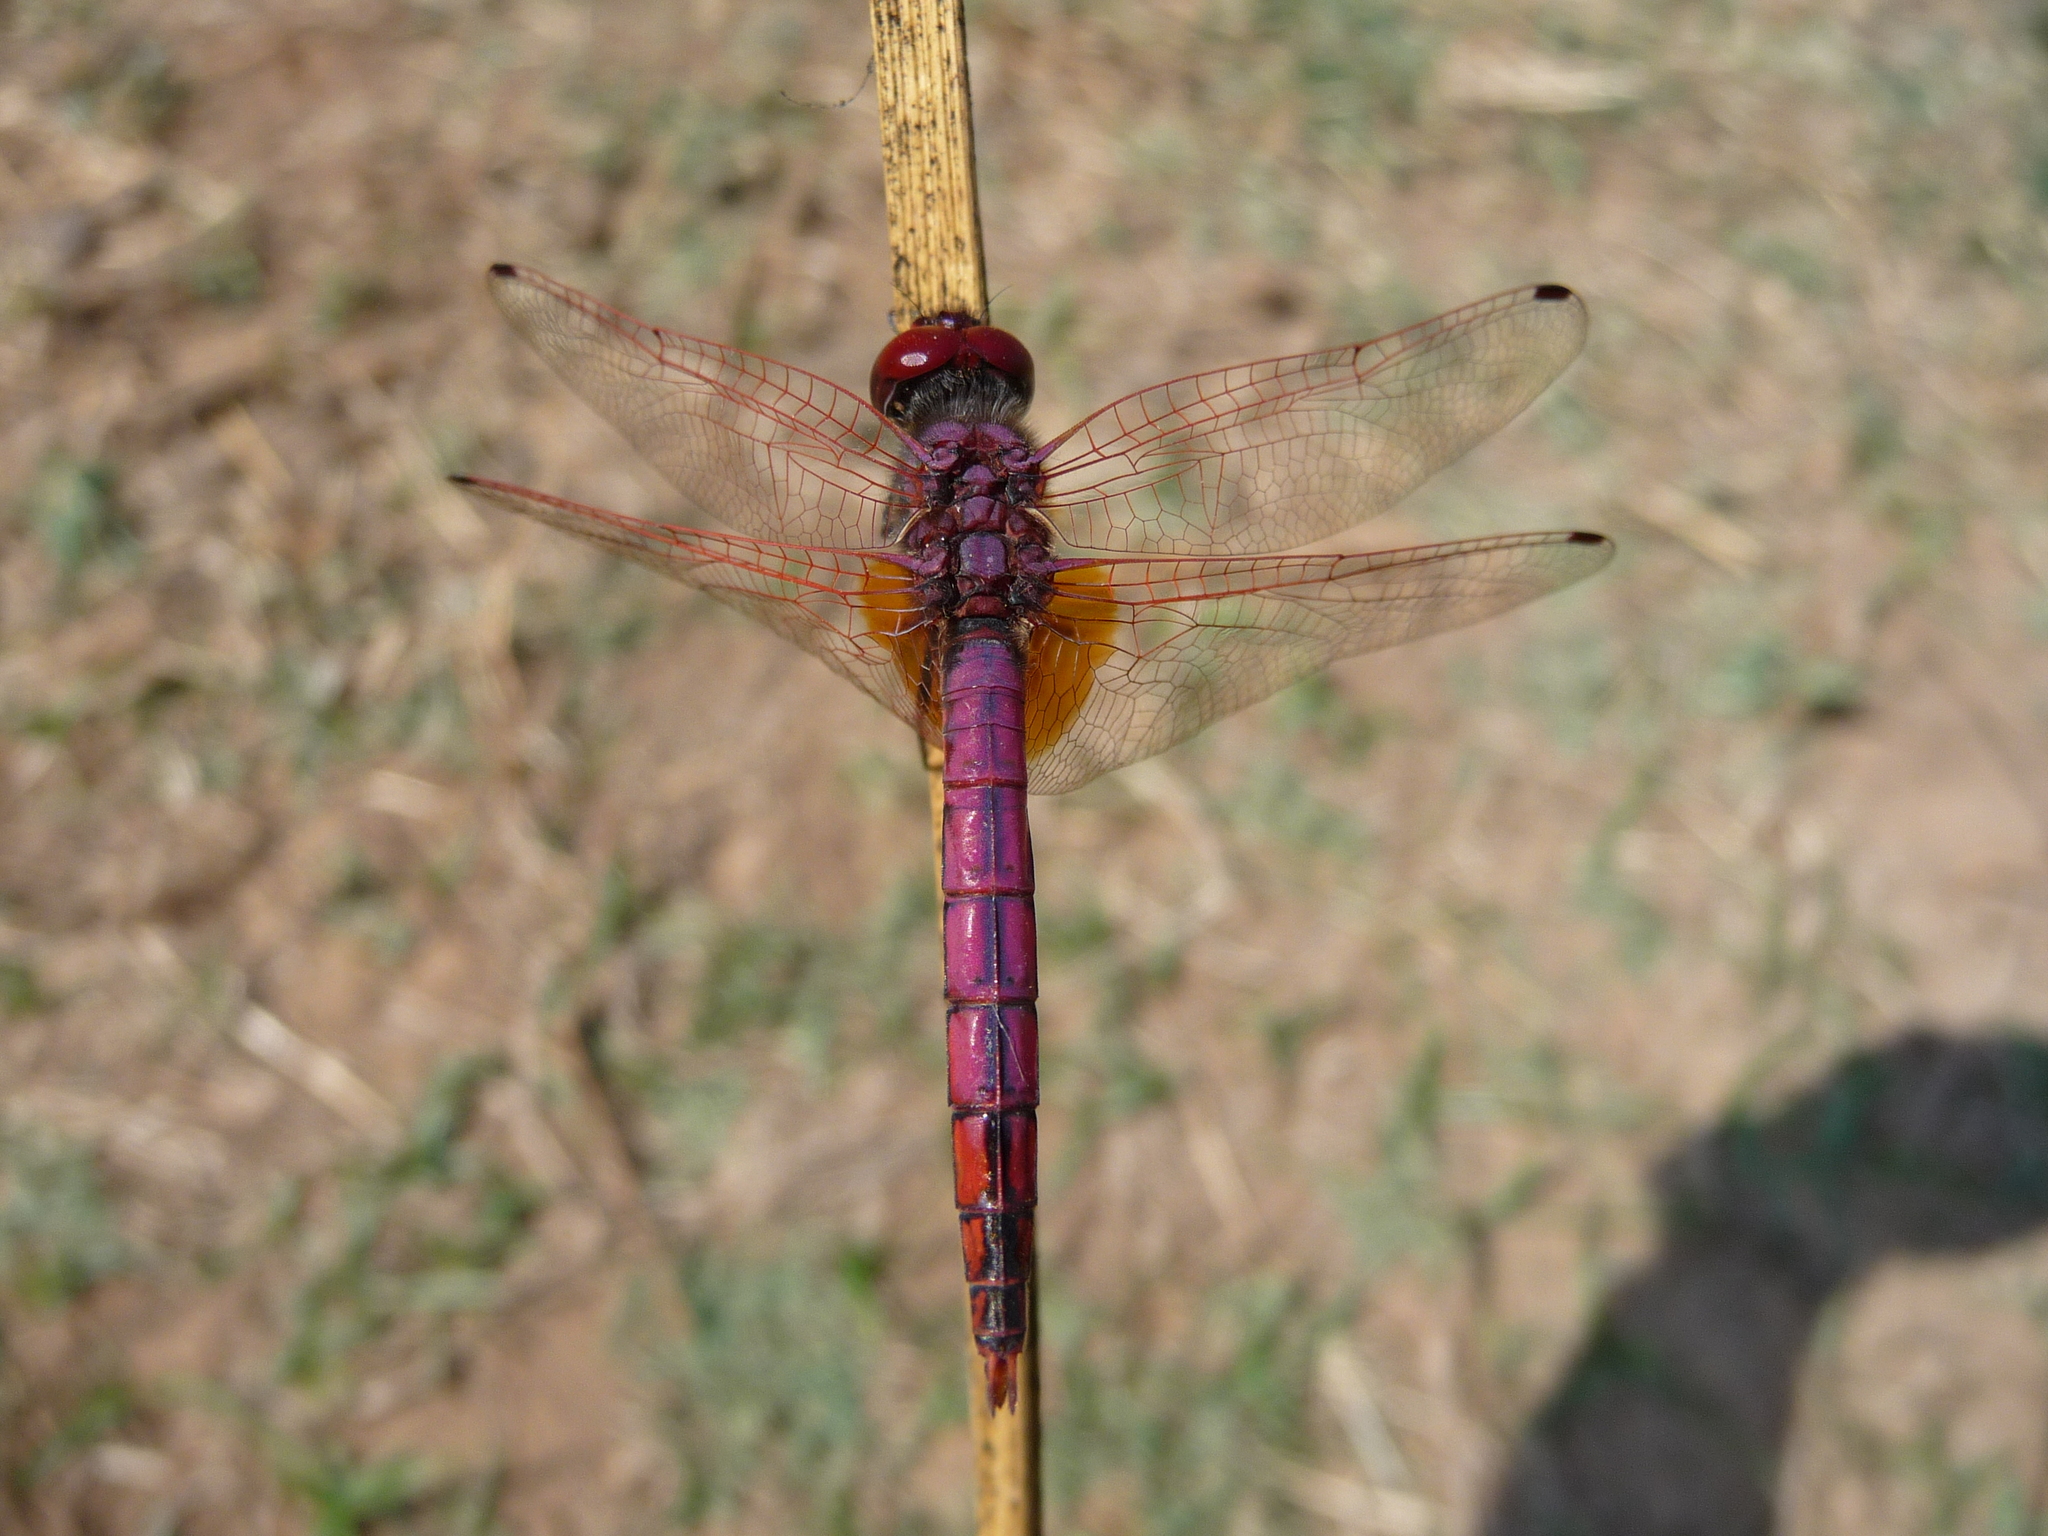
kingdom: Animalia
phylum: Arthropoda
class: Insecta
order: Odonata
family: Libellulidae
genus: Trithemis
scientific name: Trithemis annulata
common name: Violet dropwing
